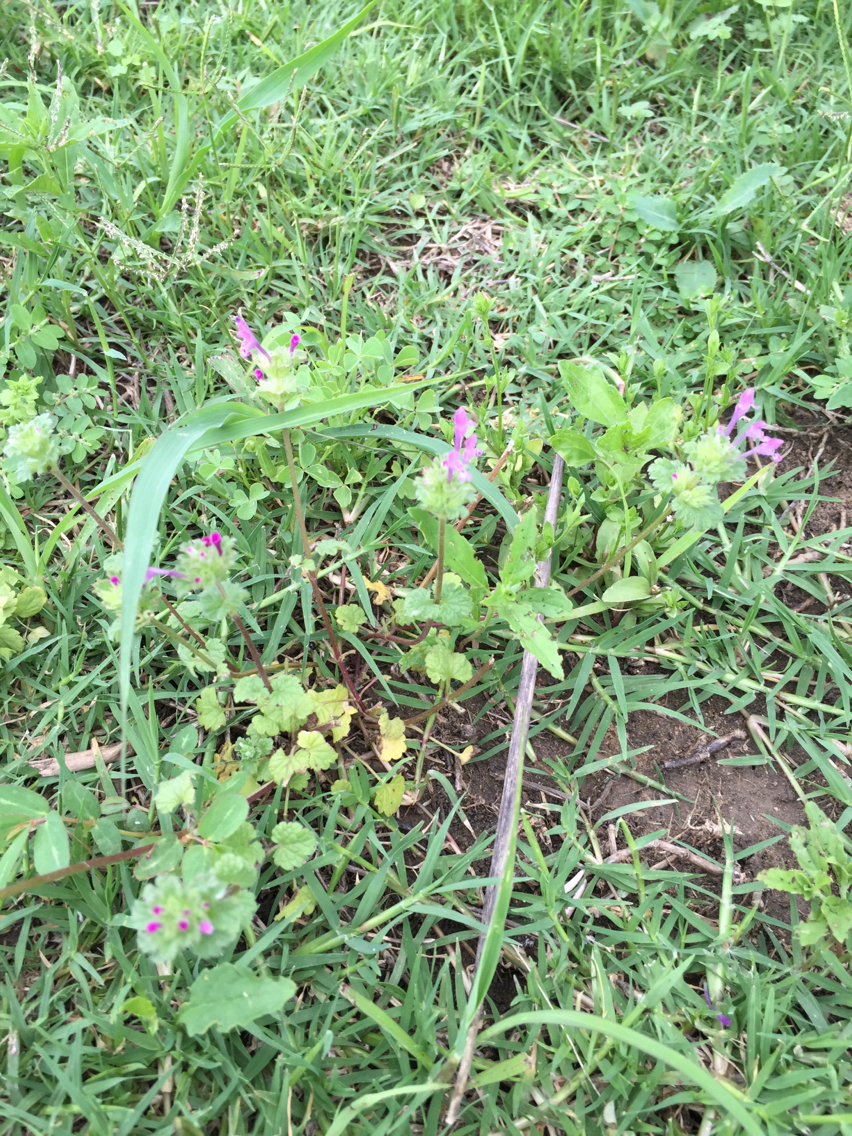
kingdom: Plantae
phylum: Tracheophyta
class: Magnoliopsida
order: Lamiales
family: Lamiaceae
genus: Lamium
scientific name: Lamium amplexicaule
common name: Henbit dead-nettle
